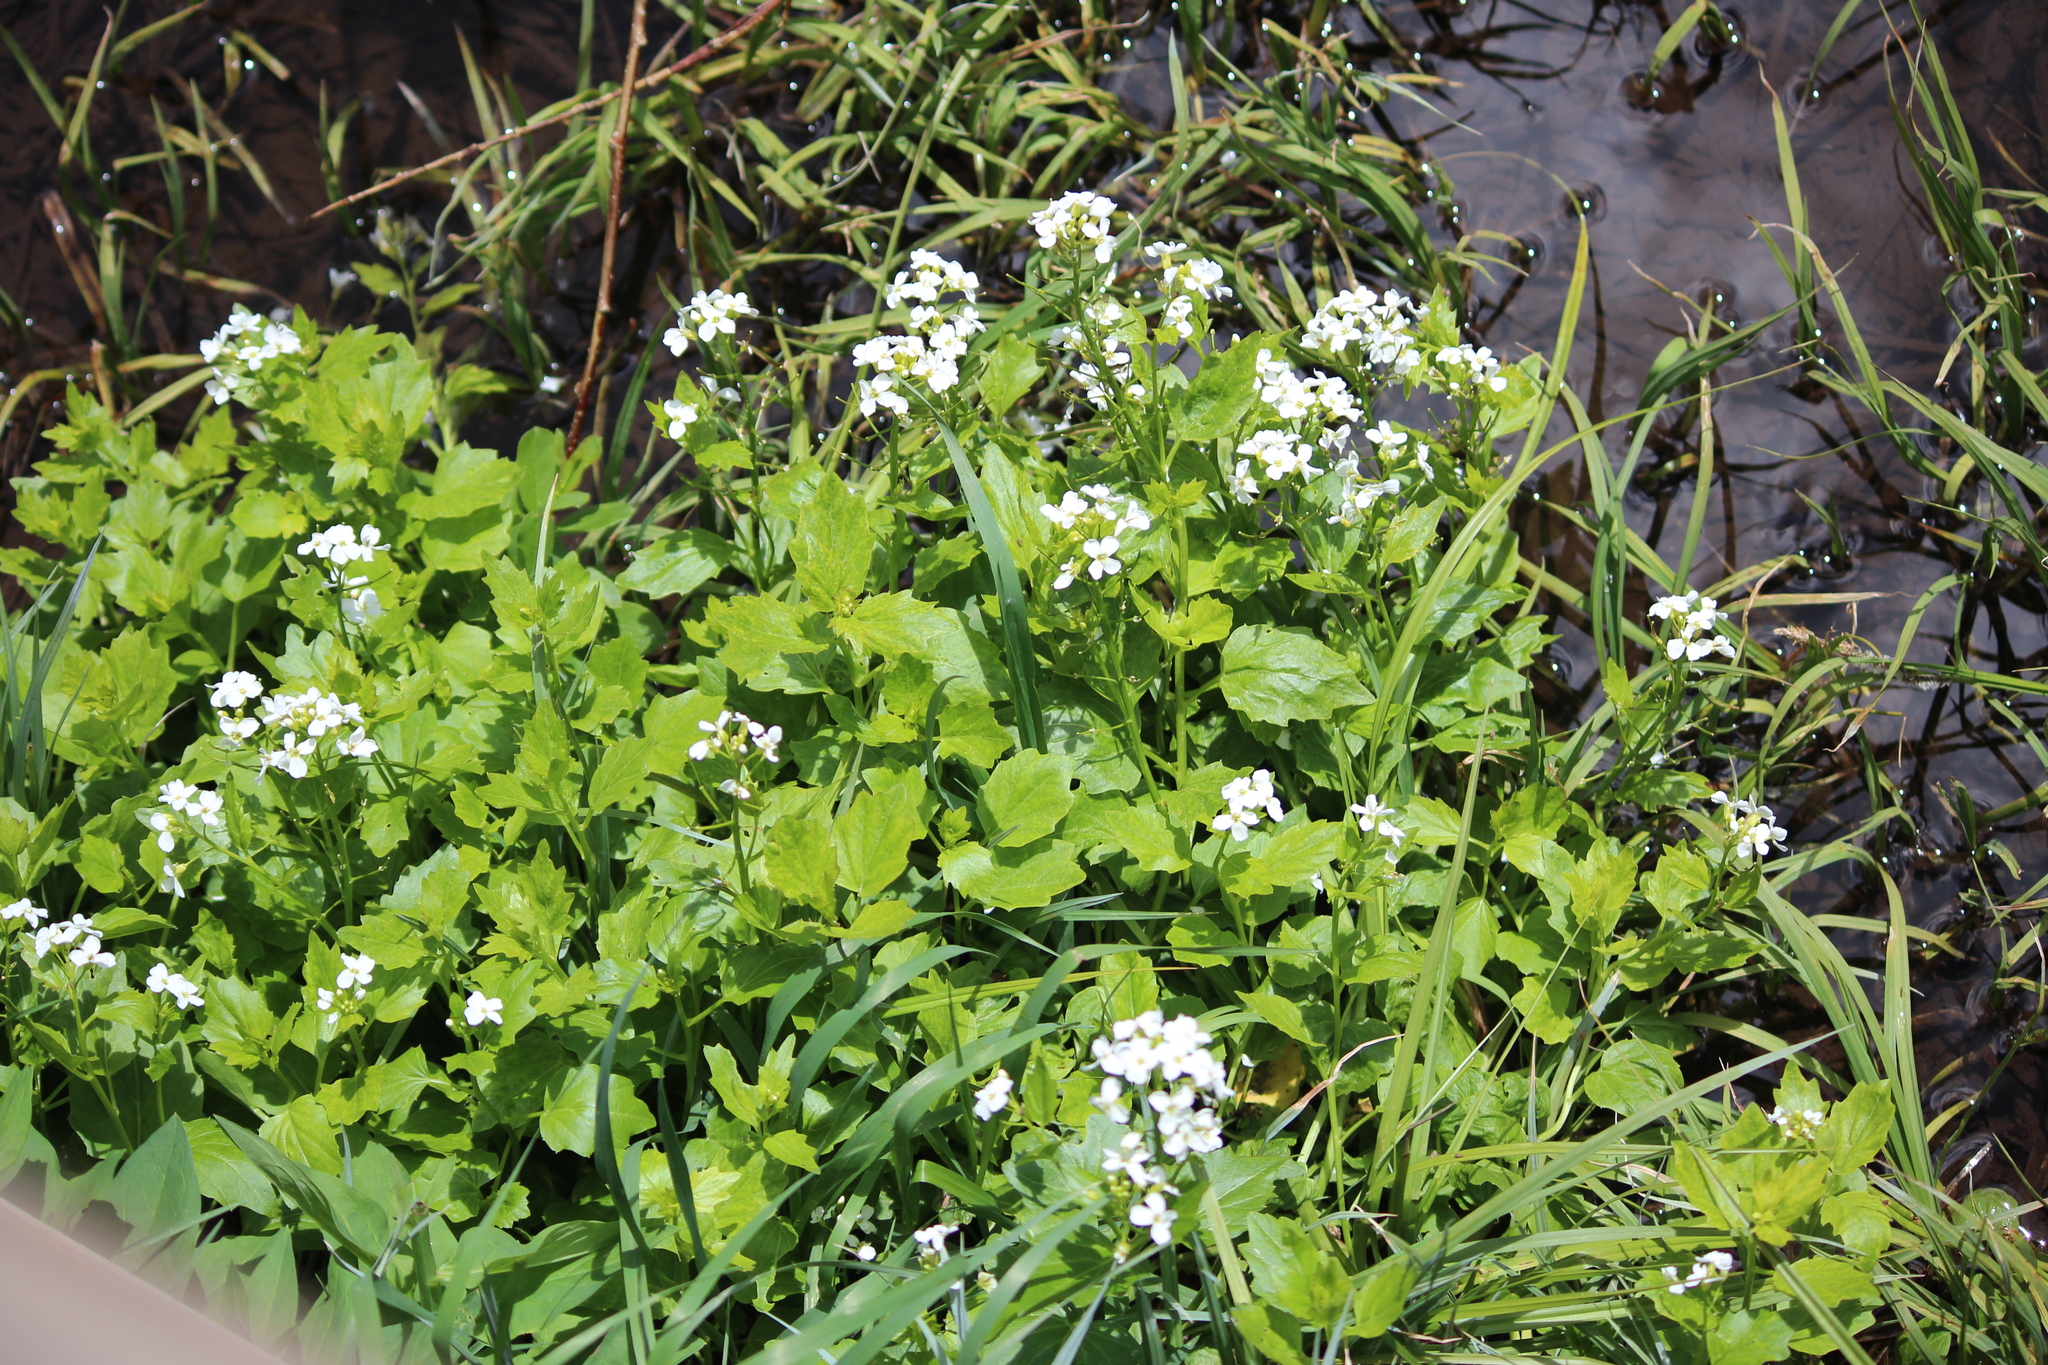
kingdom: Plantae
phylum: Tracheophyta
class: Magnoliopsida
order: Brassicales
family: Brassicaceae
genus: Cardamine
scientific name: Cardamine cordifolia
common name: Heart-leaf bittercress
